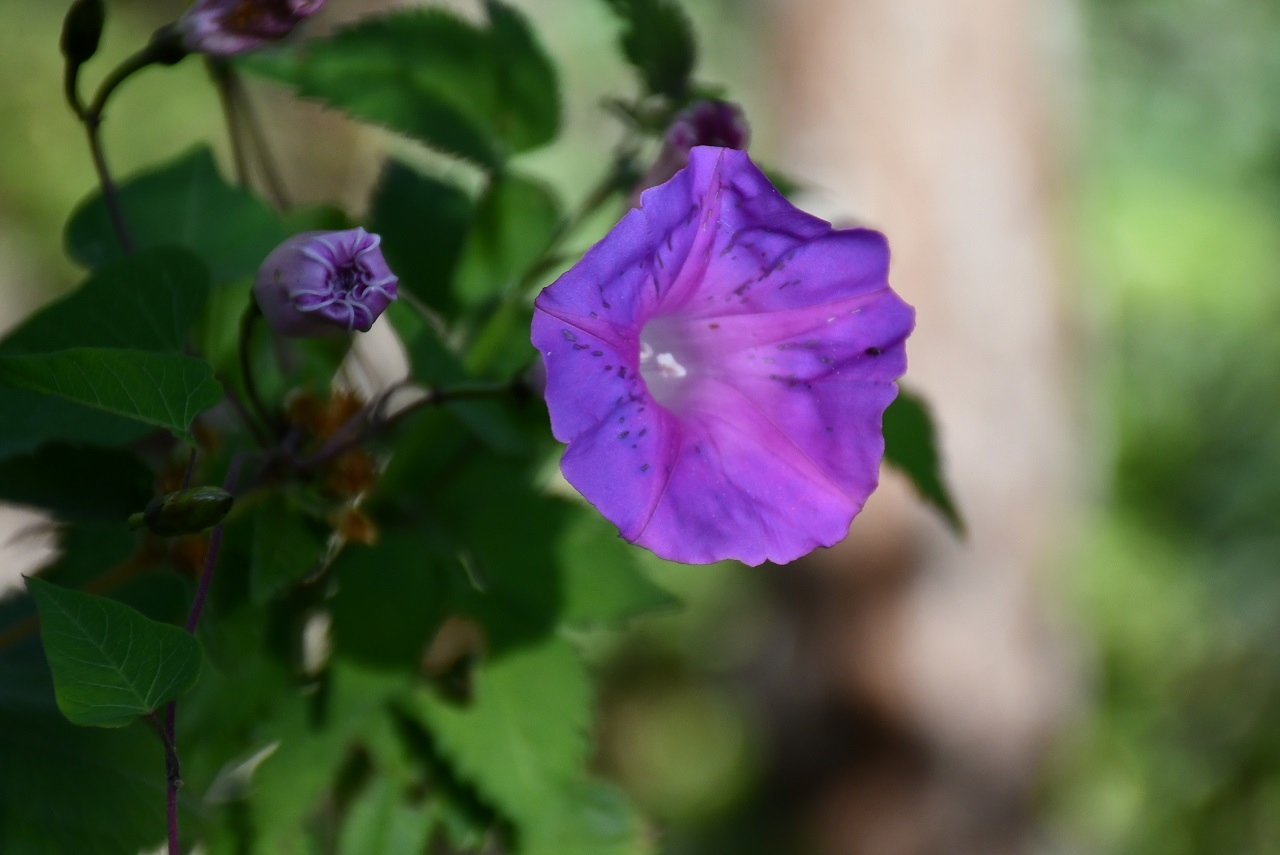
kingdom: Plantae
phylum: Tracheophyta
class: Magnoliopsida
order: Solanales
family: Convolvulaceae
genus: Ipomoea
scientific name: Ipomoea orizabensis
